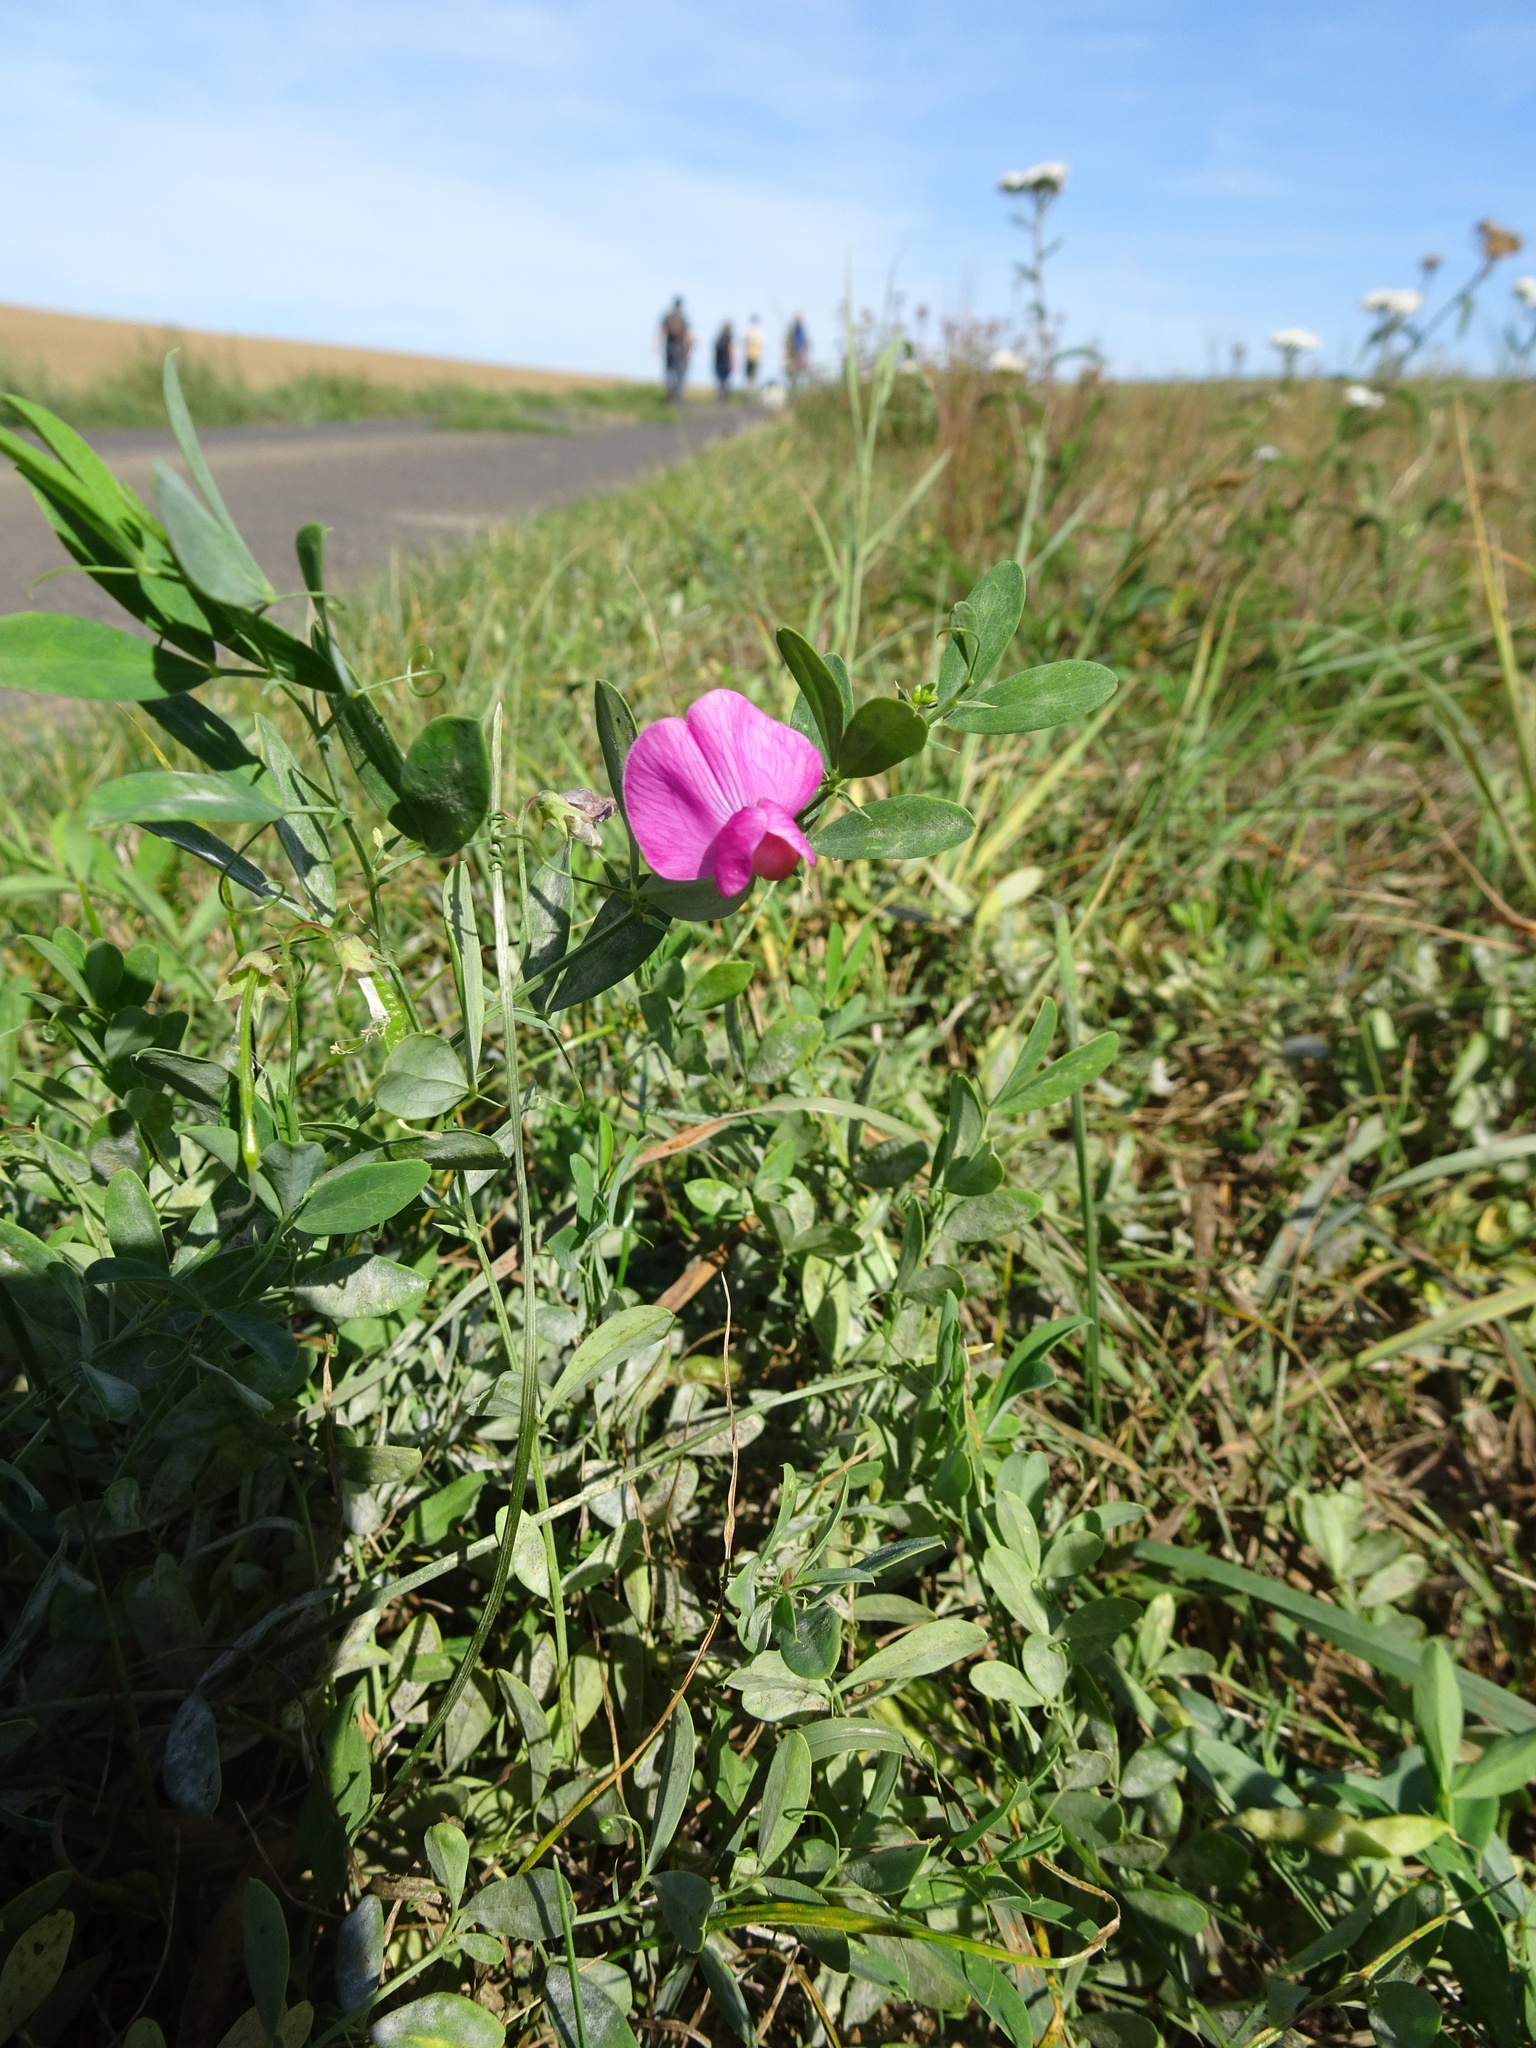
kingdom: Plantae
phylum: Tracheophyta
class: Magnoliopsida
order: Fabales
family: Fabaceae
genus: Lathyrus
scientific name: Lathyrus tuberosus
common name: Tuberous pea
